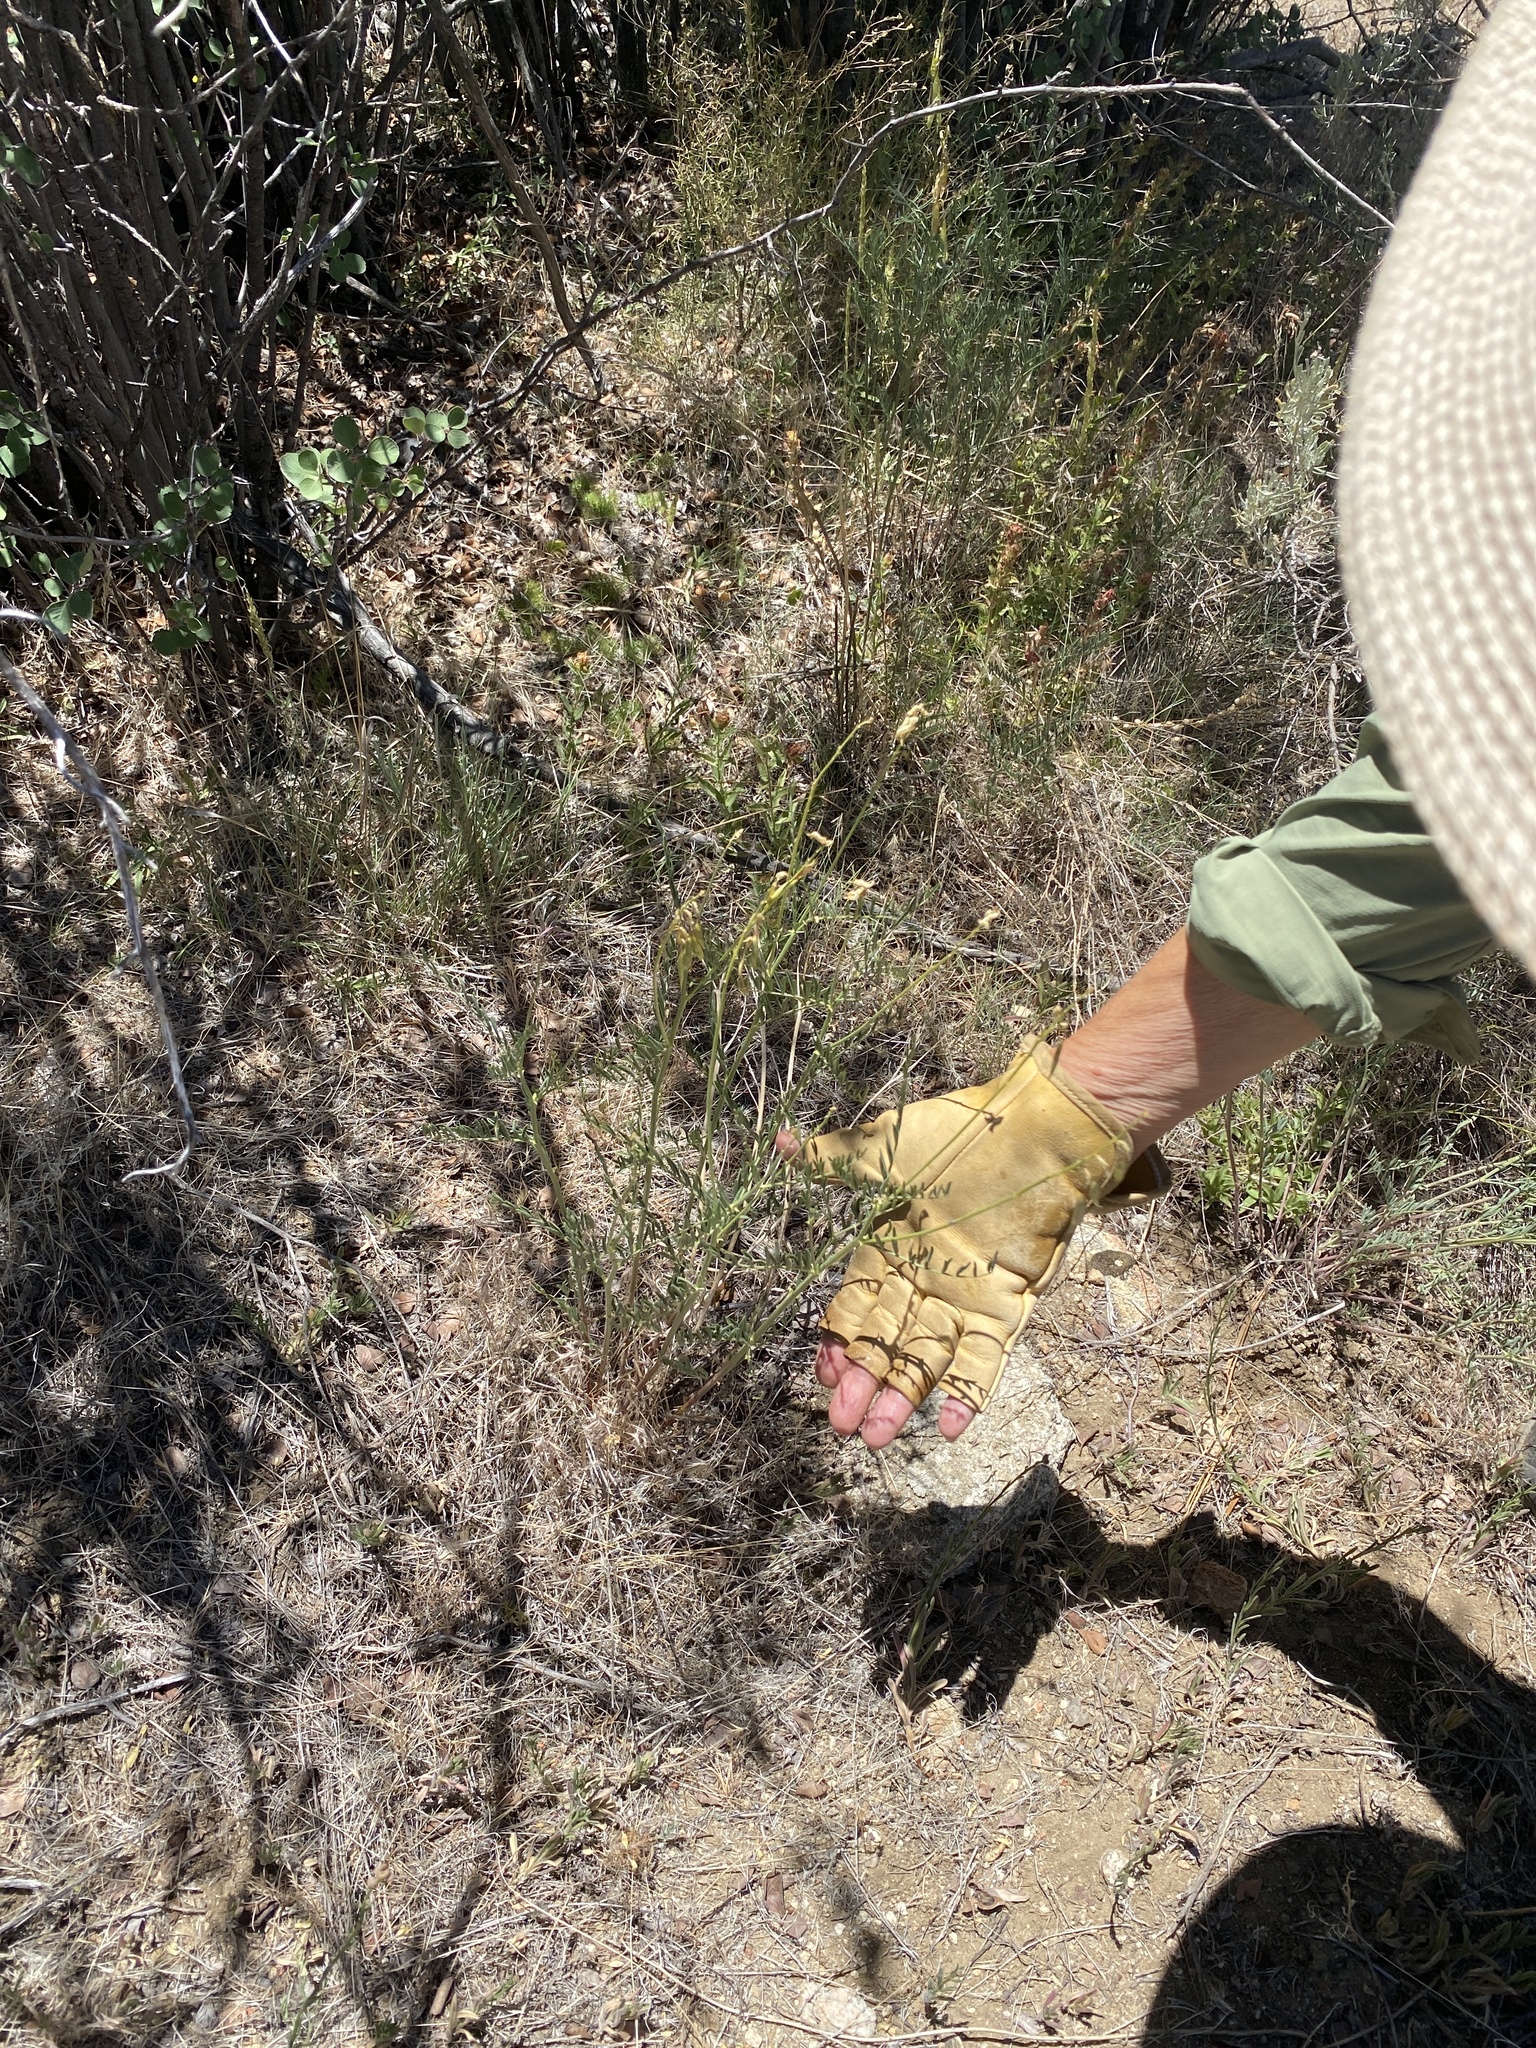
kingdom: Plantae
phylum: Tracheophyta
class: Magnoliopsida
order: Fabales
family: Fabaceae
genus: Astragalus
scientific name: Astragalus filipes
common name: Basalt milk-vetch
